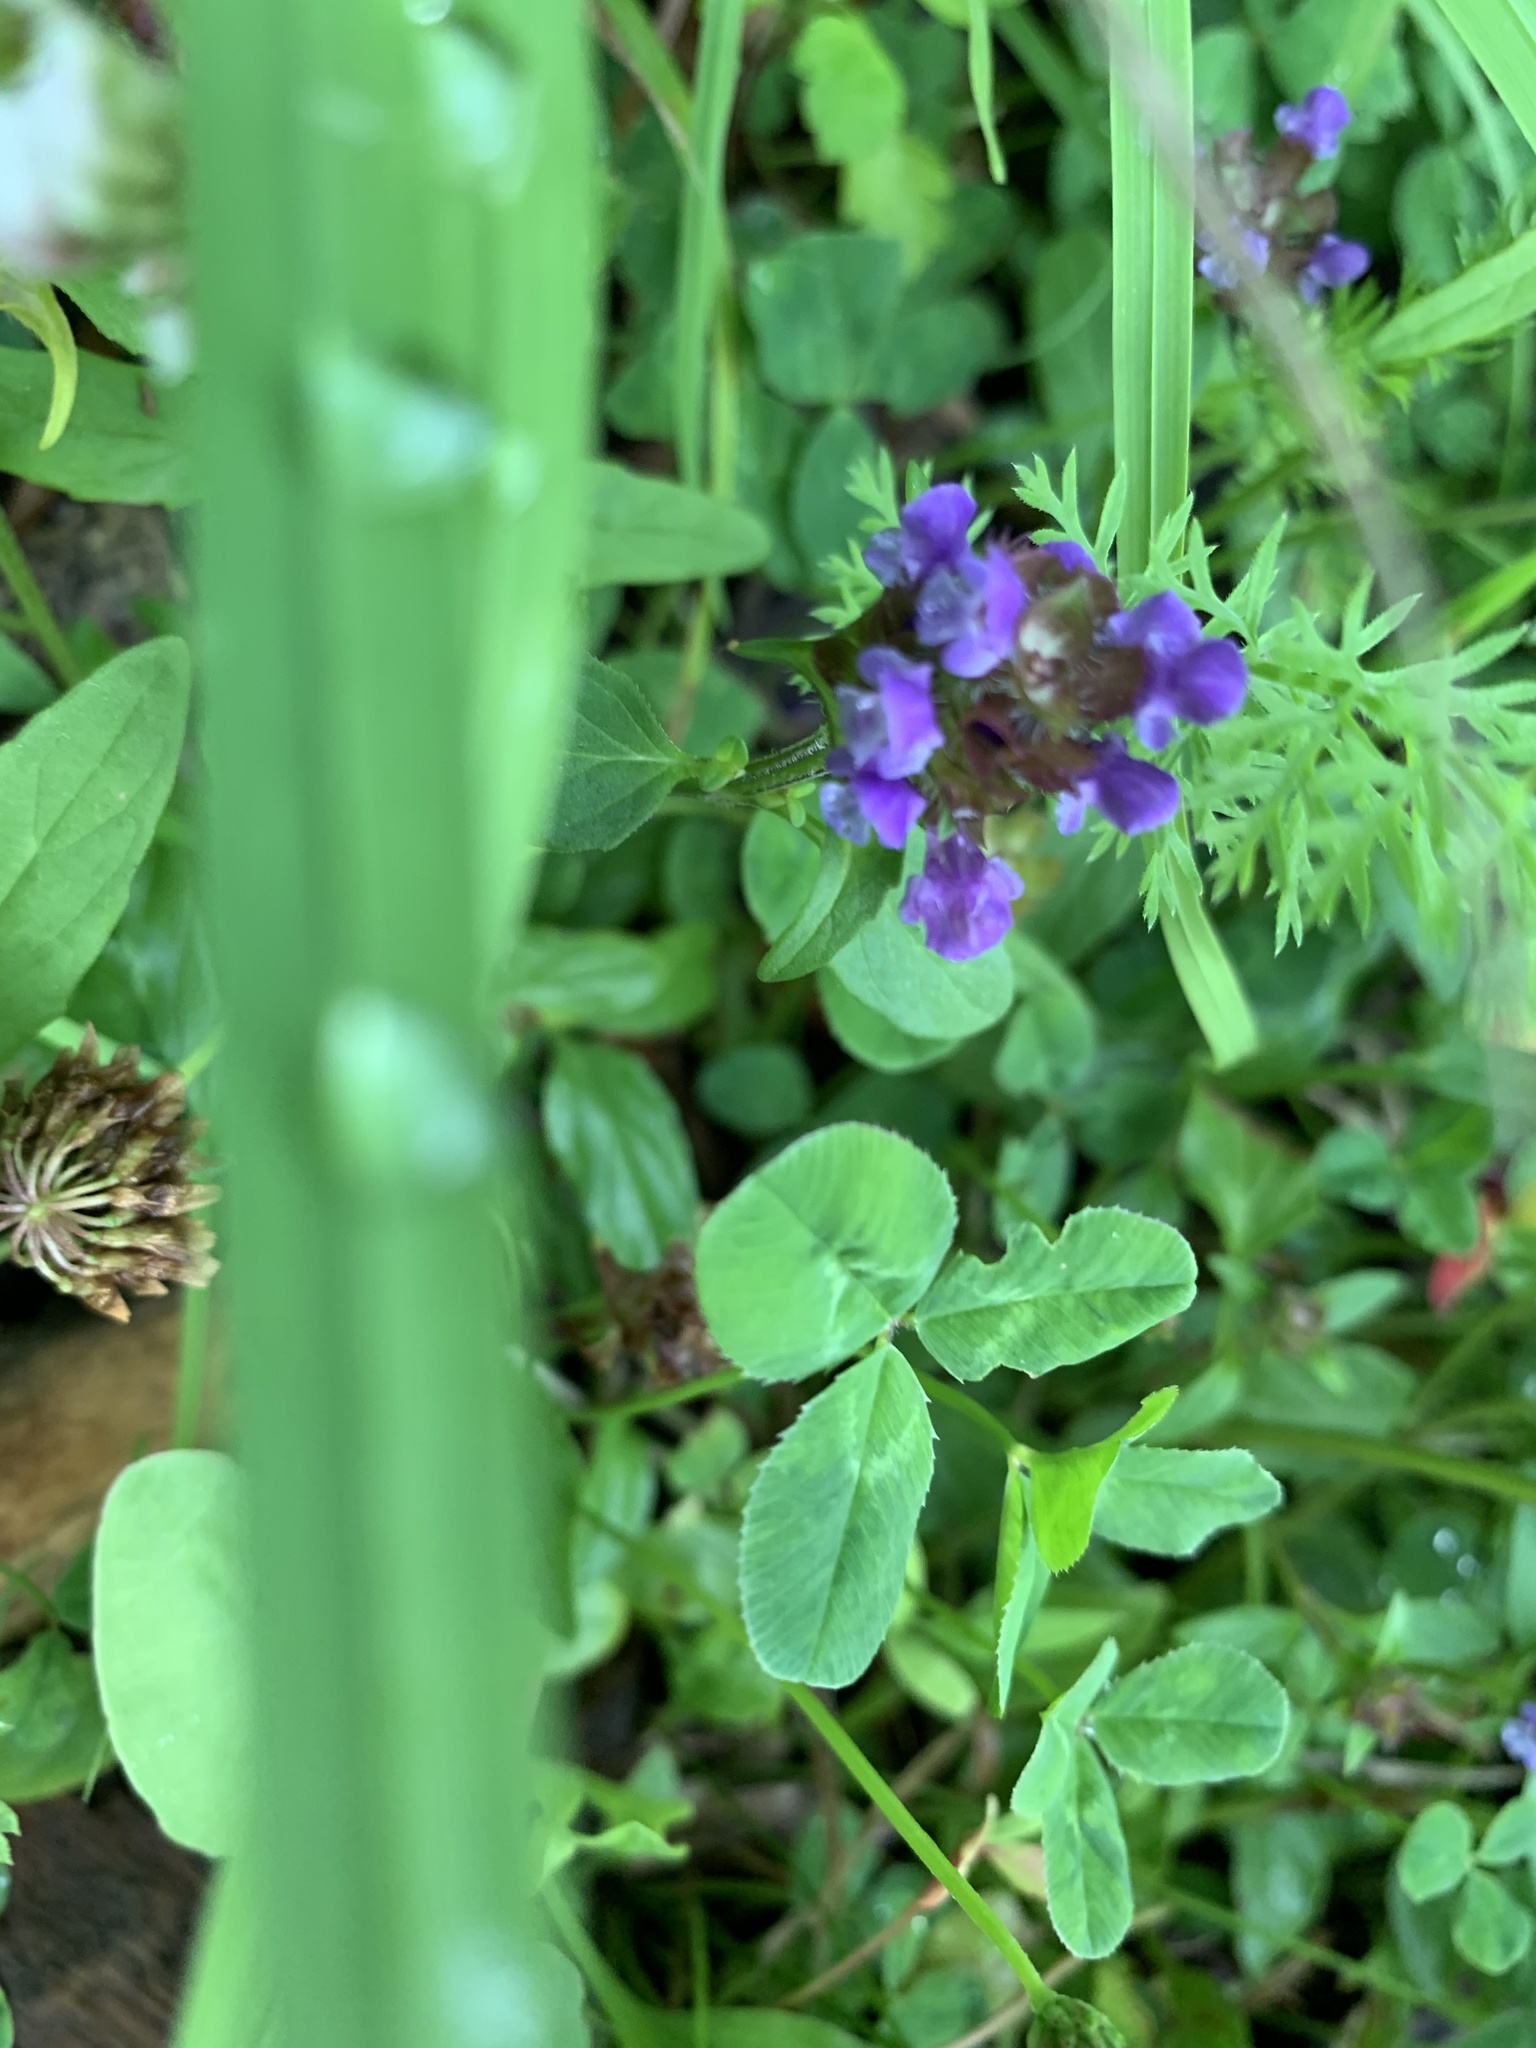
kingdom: Plantae
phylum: Tracheophyta
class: Magnoliopsida
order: Lamiales
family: Lamiaceae
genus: Prunella
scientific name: Prunella vulgaris
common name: Heal-all
